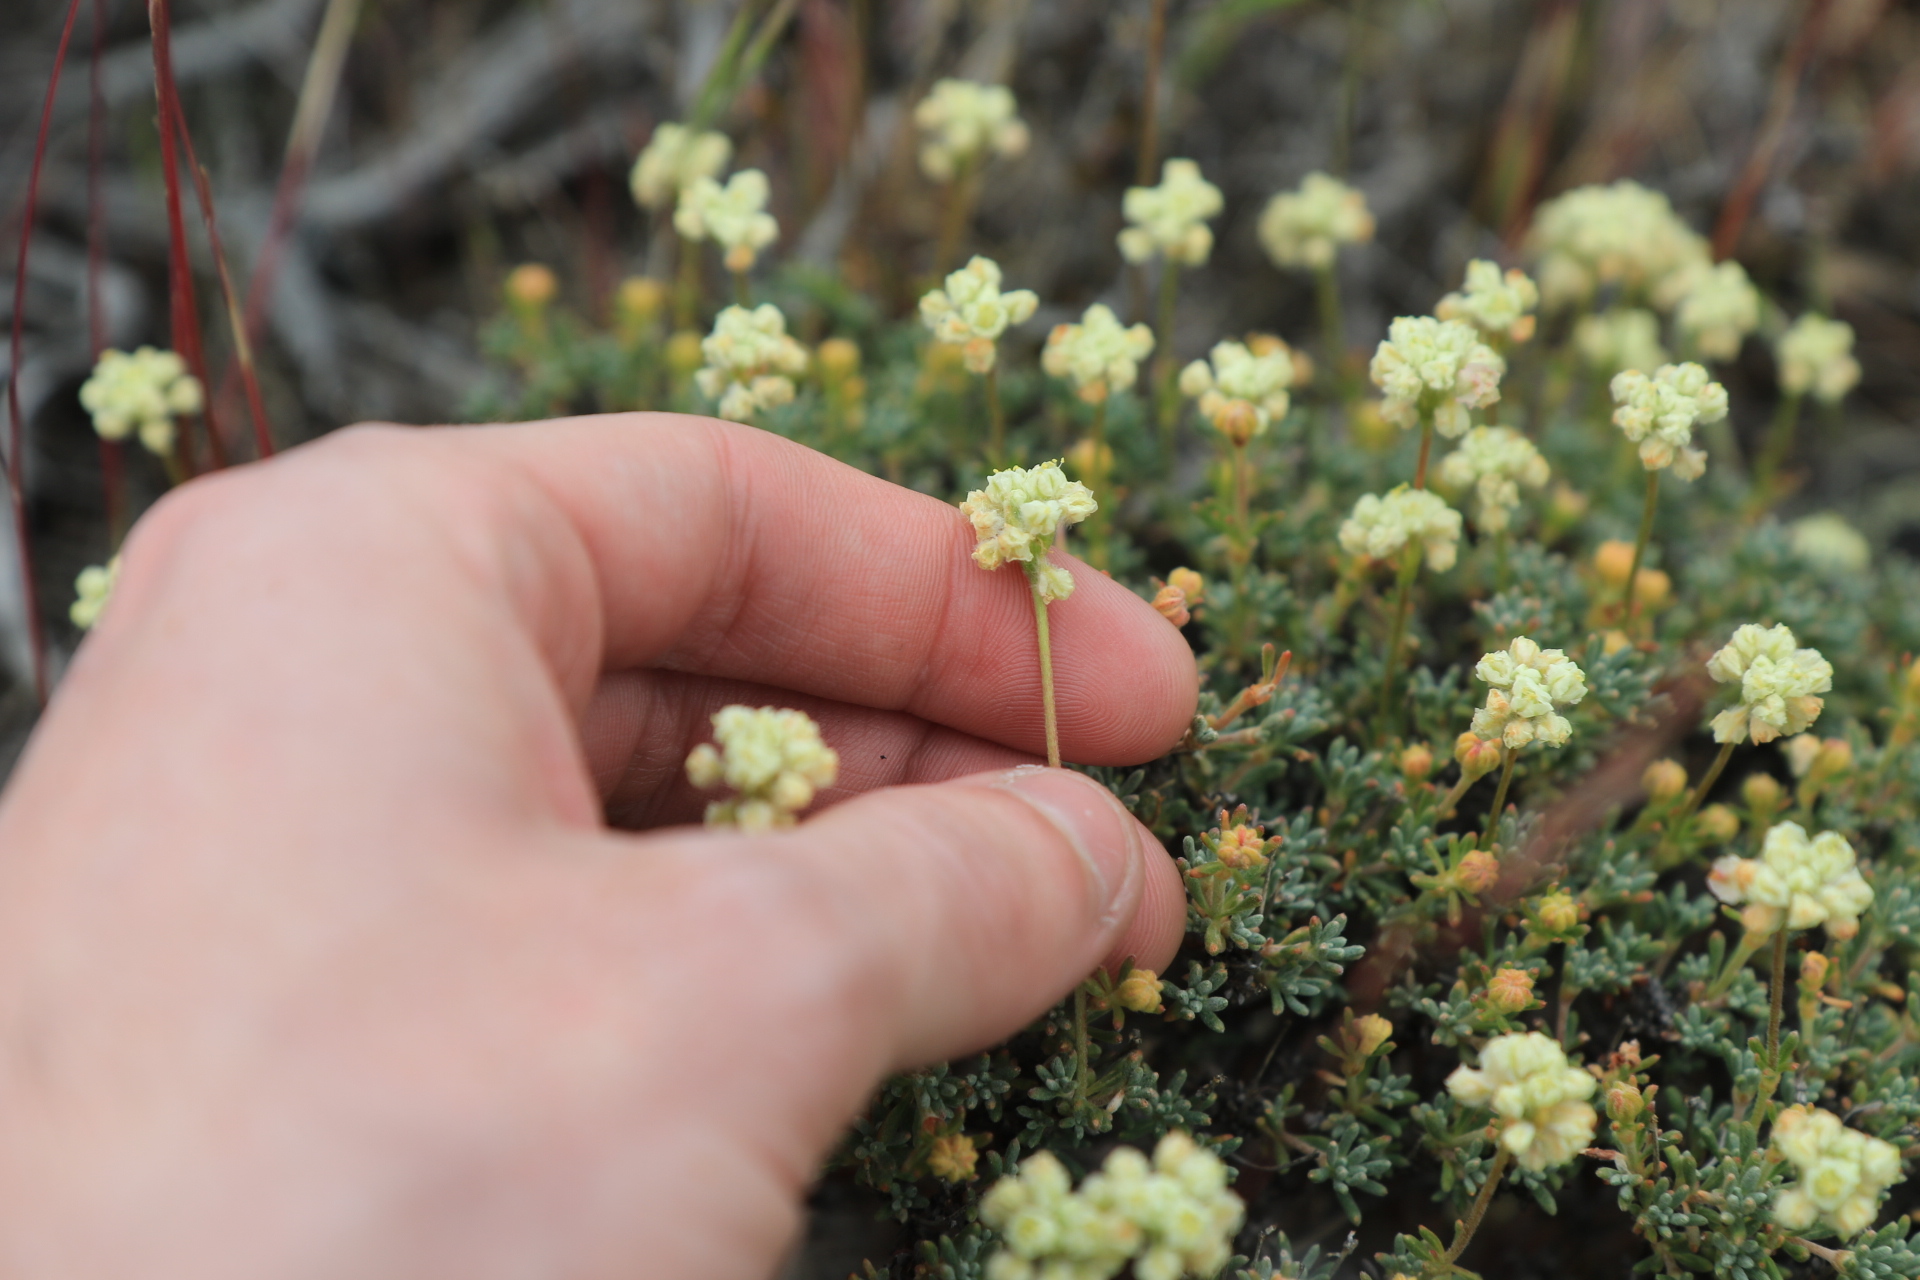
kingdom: Plantae
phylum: Tracheophyta
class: Magnoliopsida
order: Caryophyllales
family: Polygonaceae
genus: Eriogonum
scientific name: Eriogonum thymoides
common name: Thyme-leaf wild buckwheat
